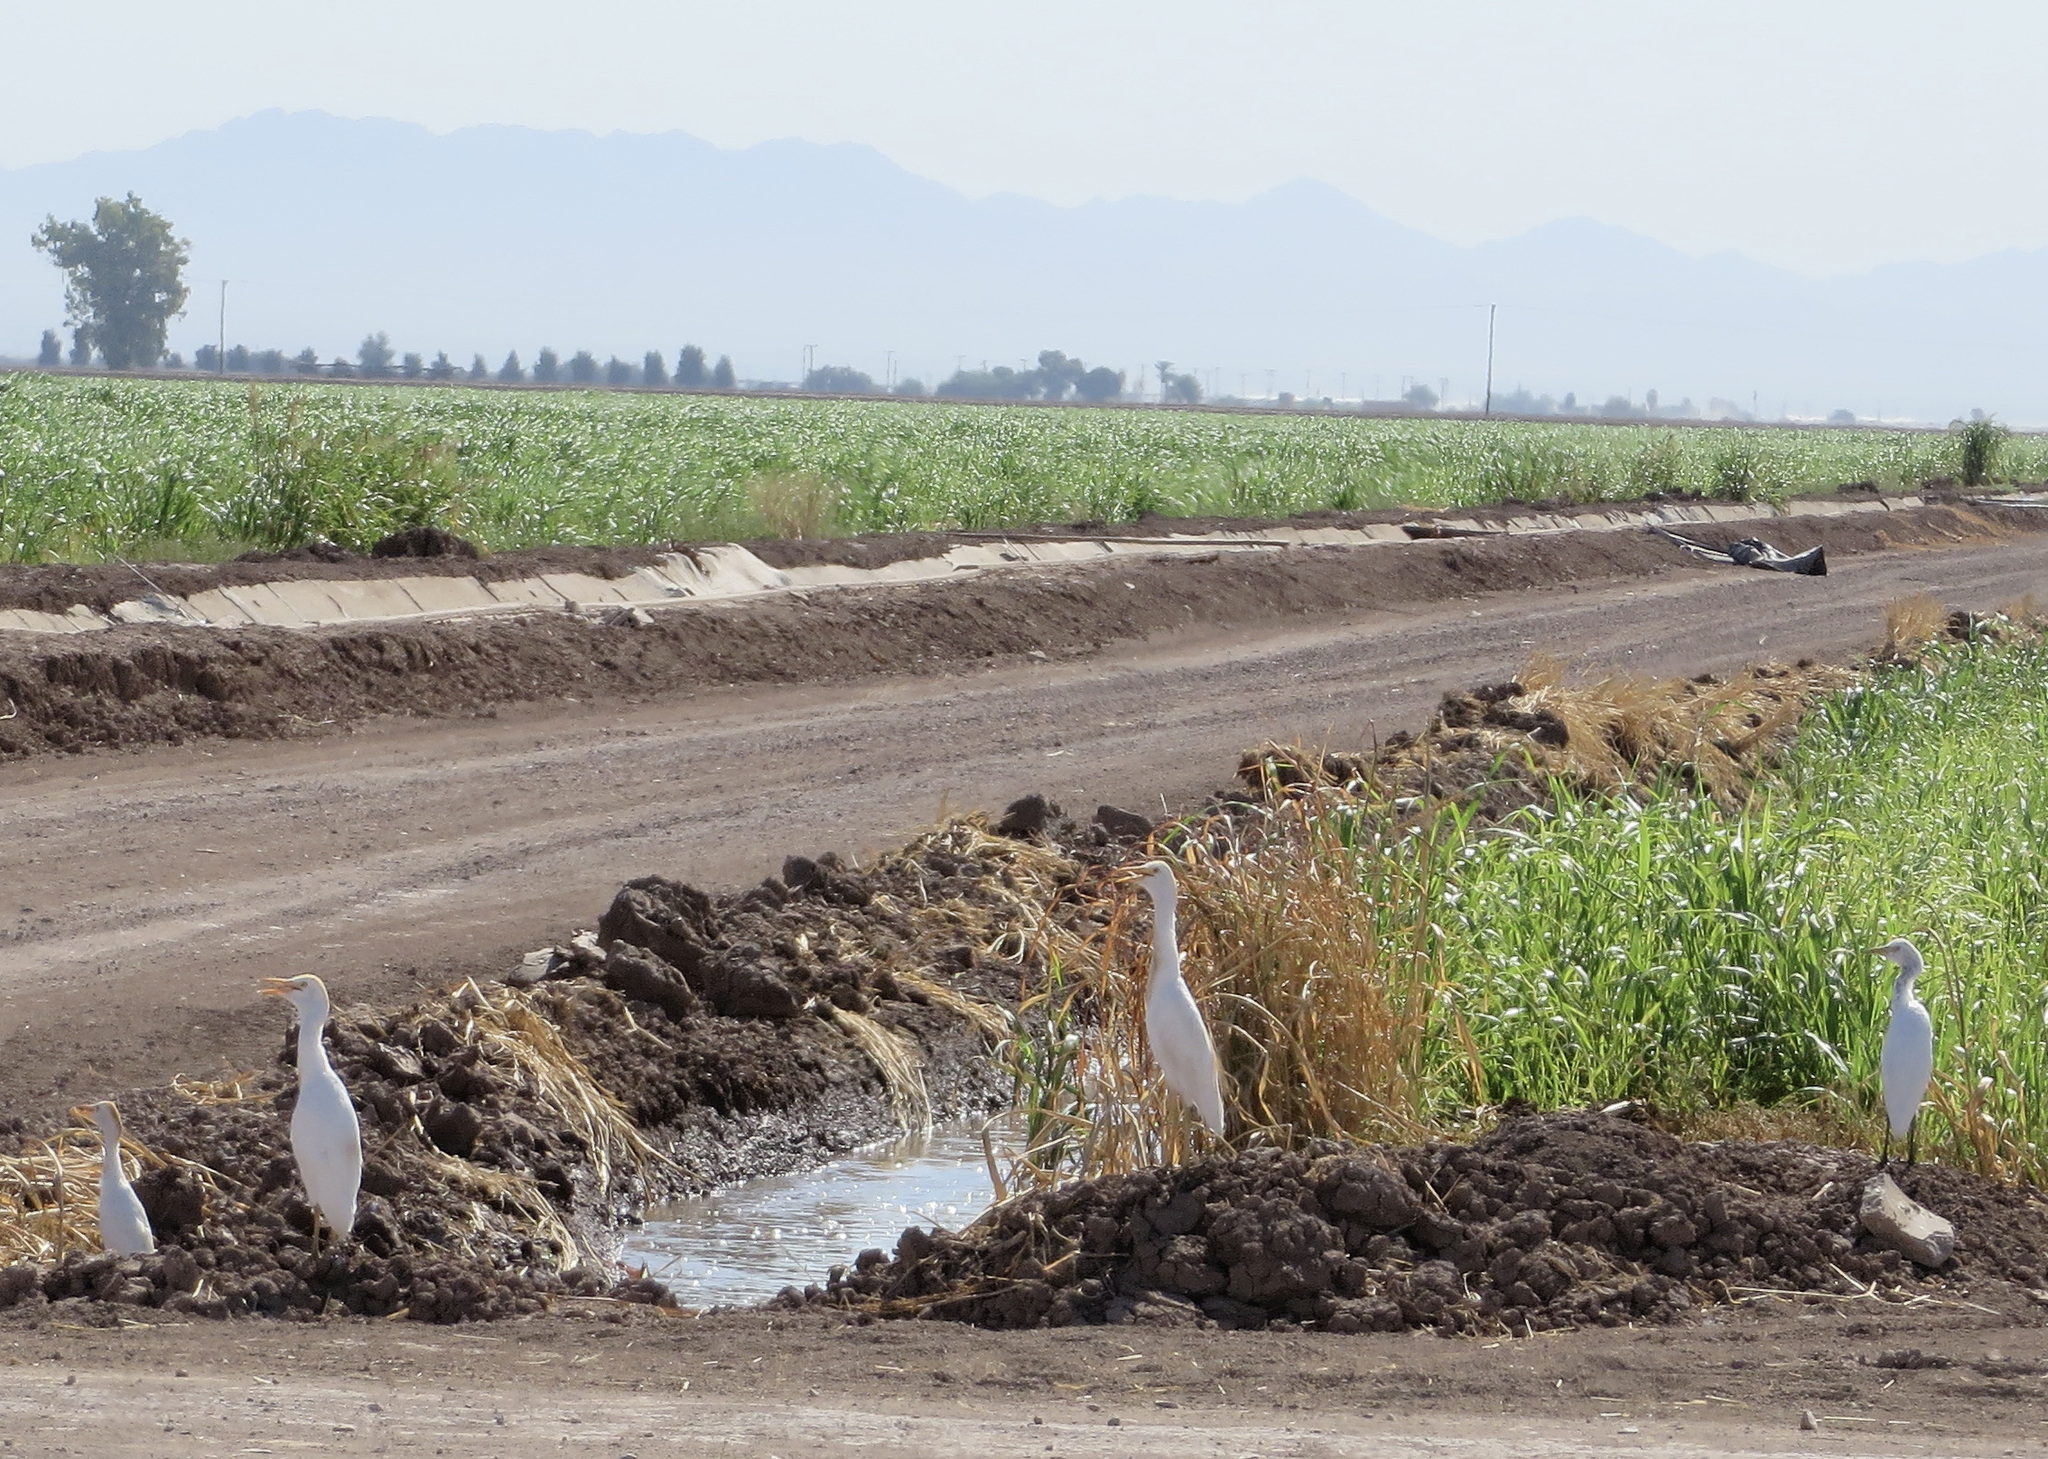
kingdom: Animalia
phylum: Chordata
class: Aves
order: Pelecaniformes
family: Ardeidae
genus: Bubulcus
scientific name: Bubulcus ibis
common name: Cattle egret
